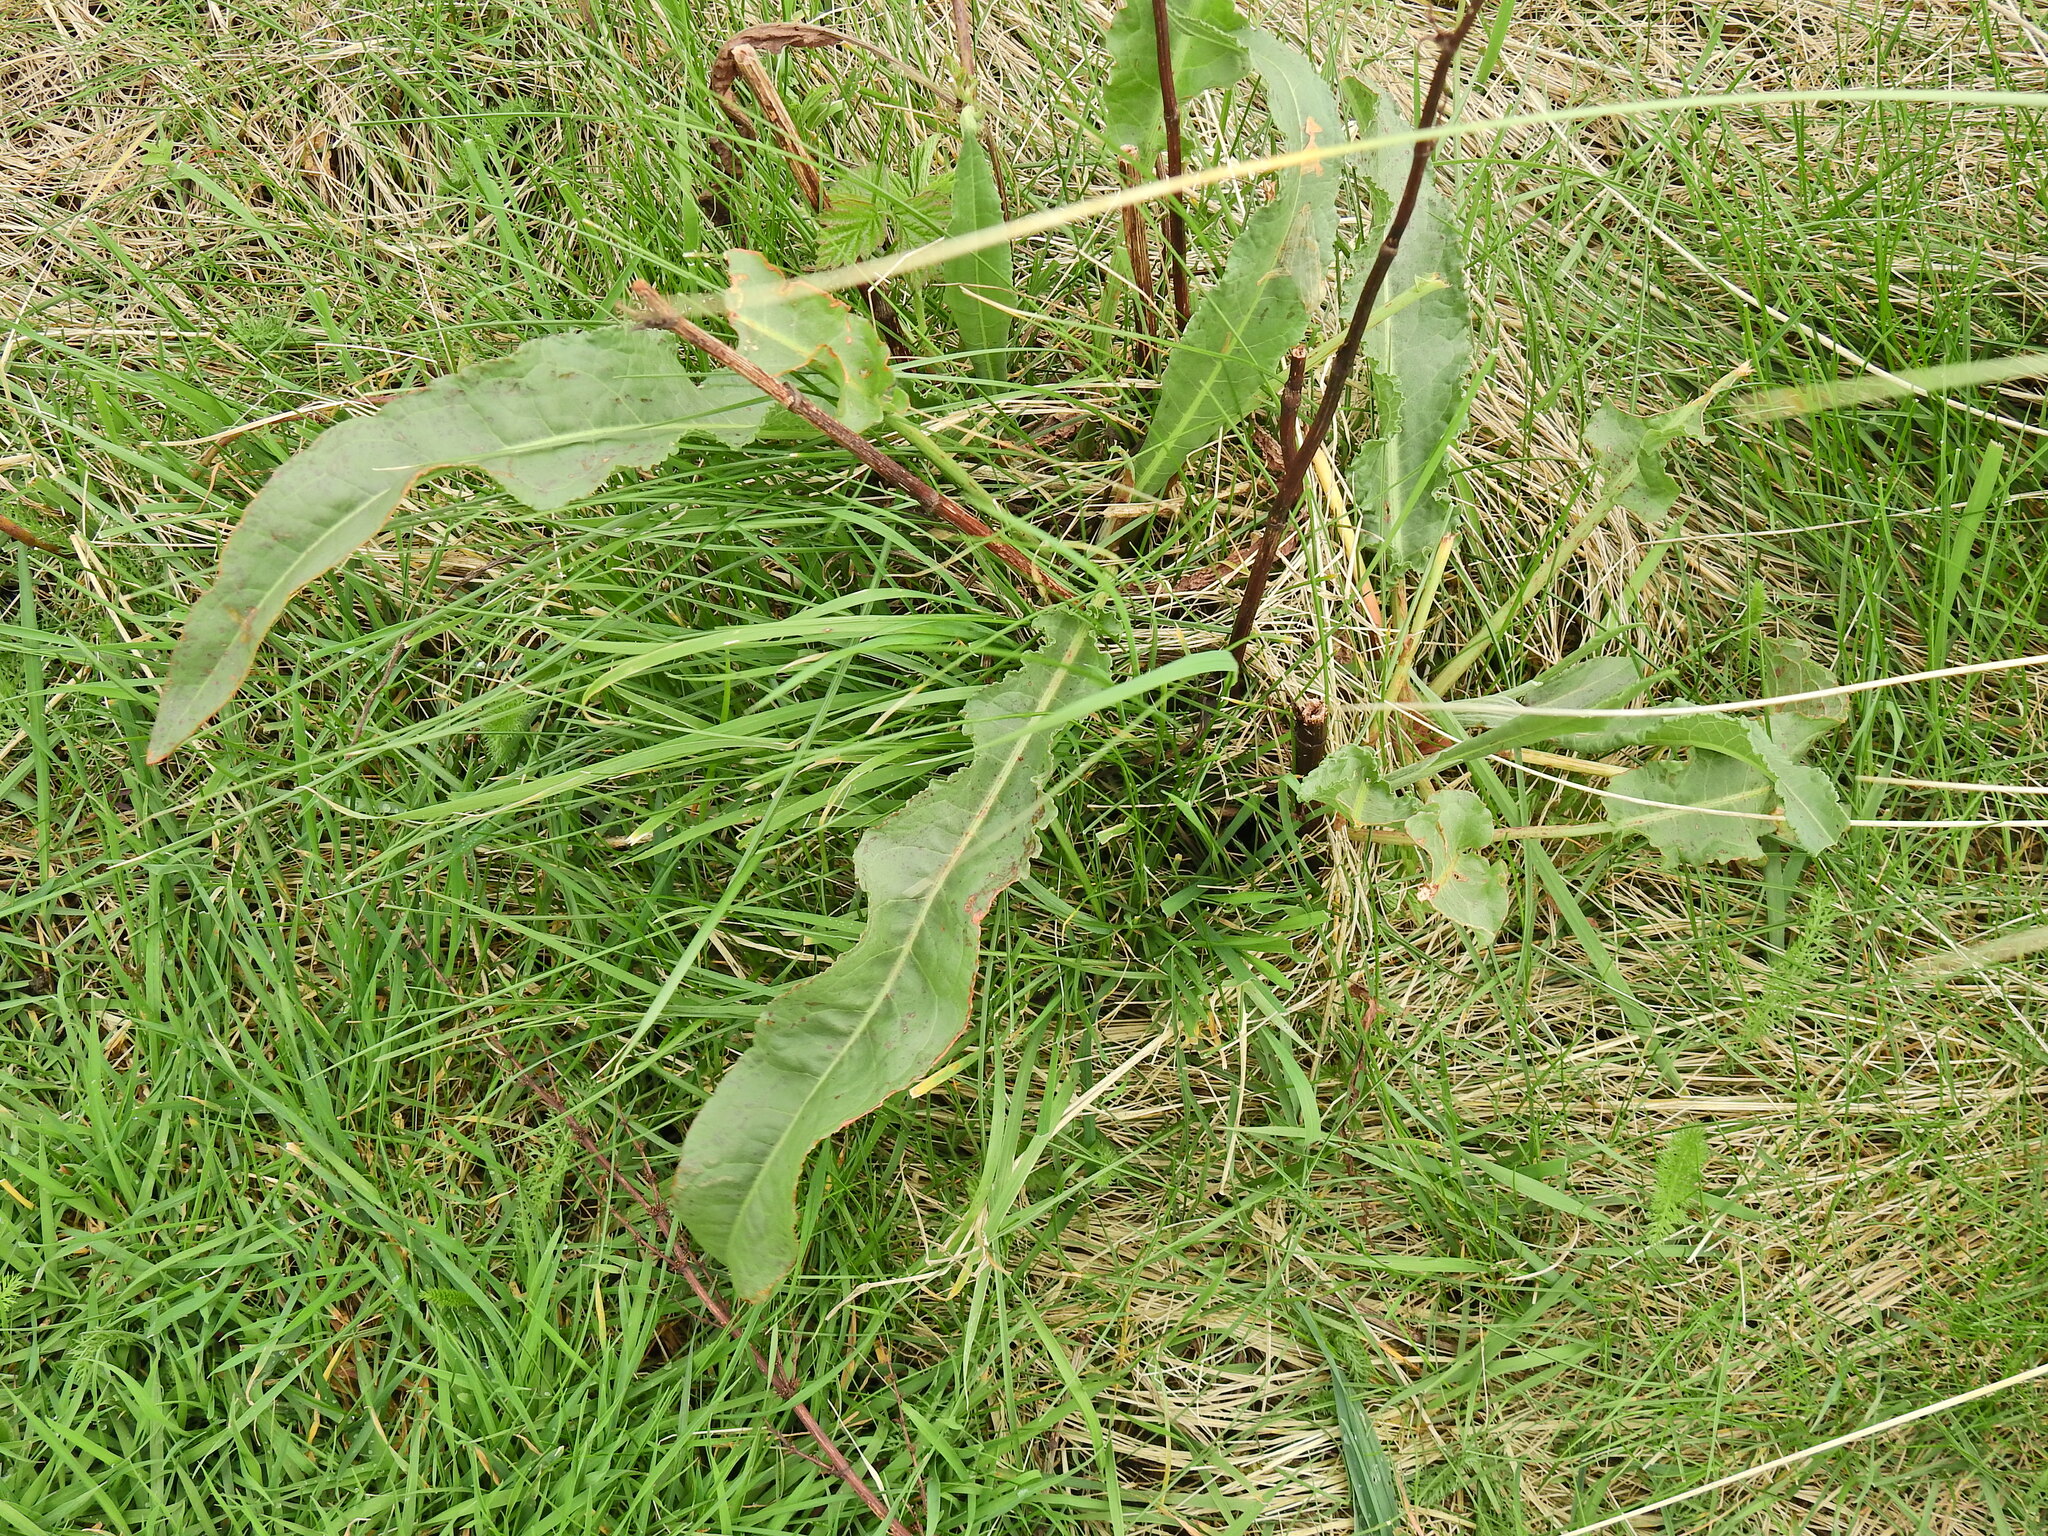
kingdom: Plantae
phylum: Tracheophyta
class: Magnoliopsida
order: Caryophyllales
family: Polygonaceae
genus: Rumex
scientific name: Rumex crispus
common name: Curled dock
